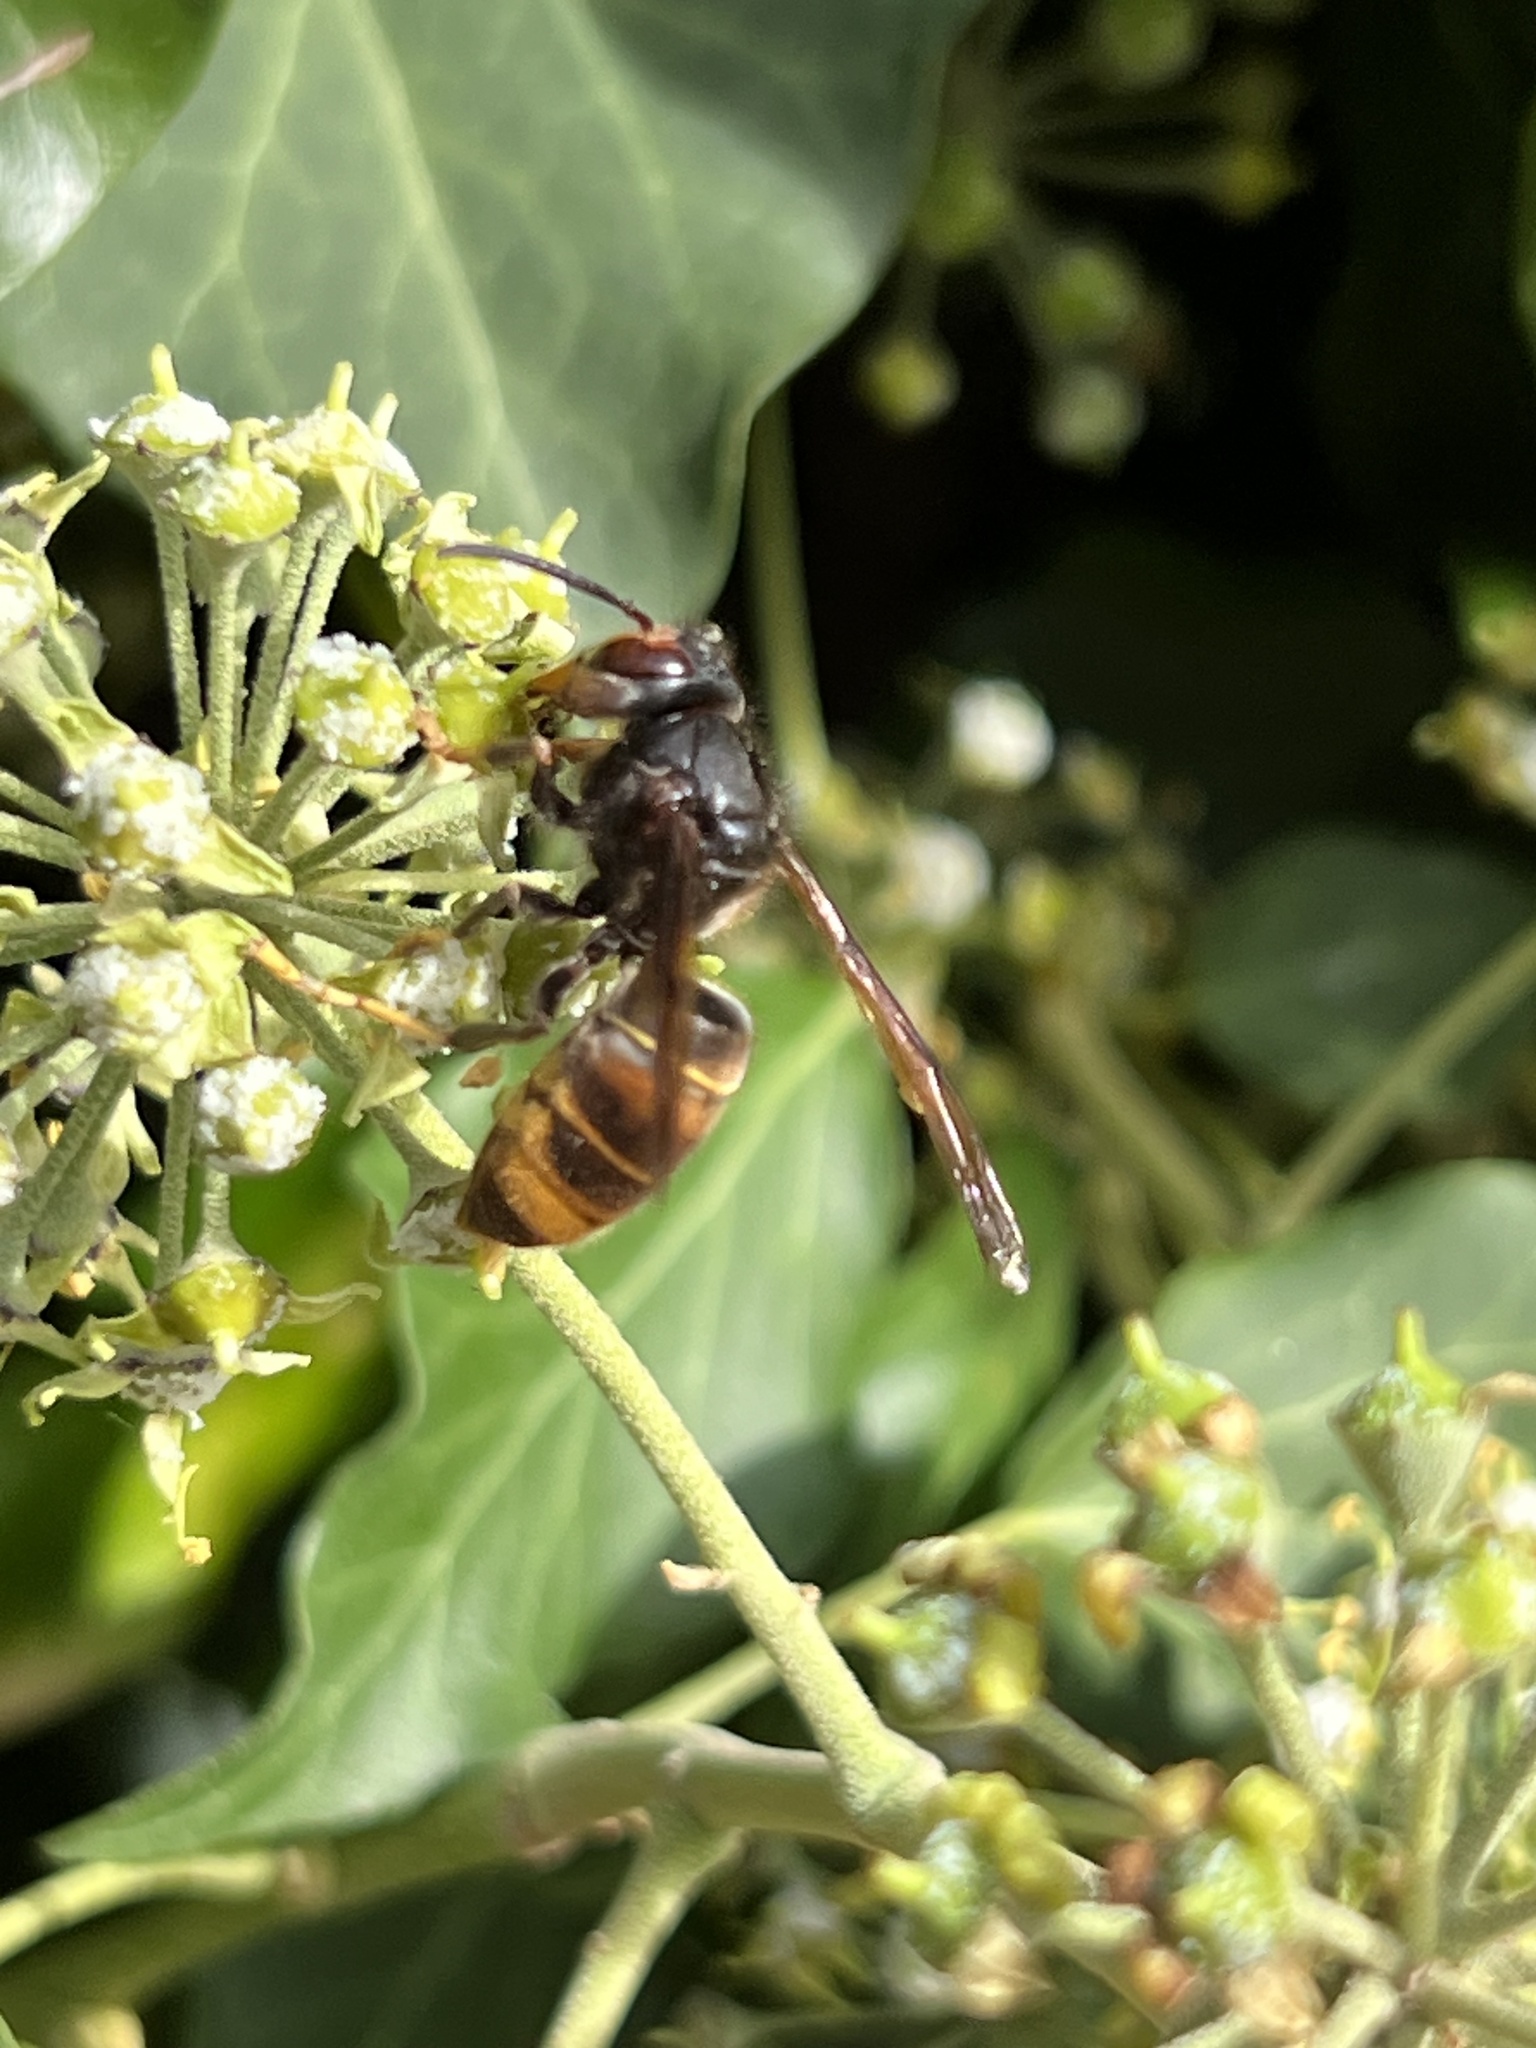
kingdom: Animalia
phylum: Arthropoda
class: Insecta
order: Hymenoptera
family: Vespidae
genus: Vespa
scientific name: Vespa velutina
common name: Asian hornet
